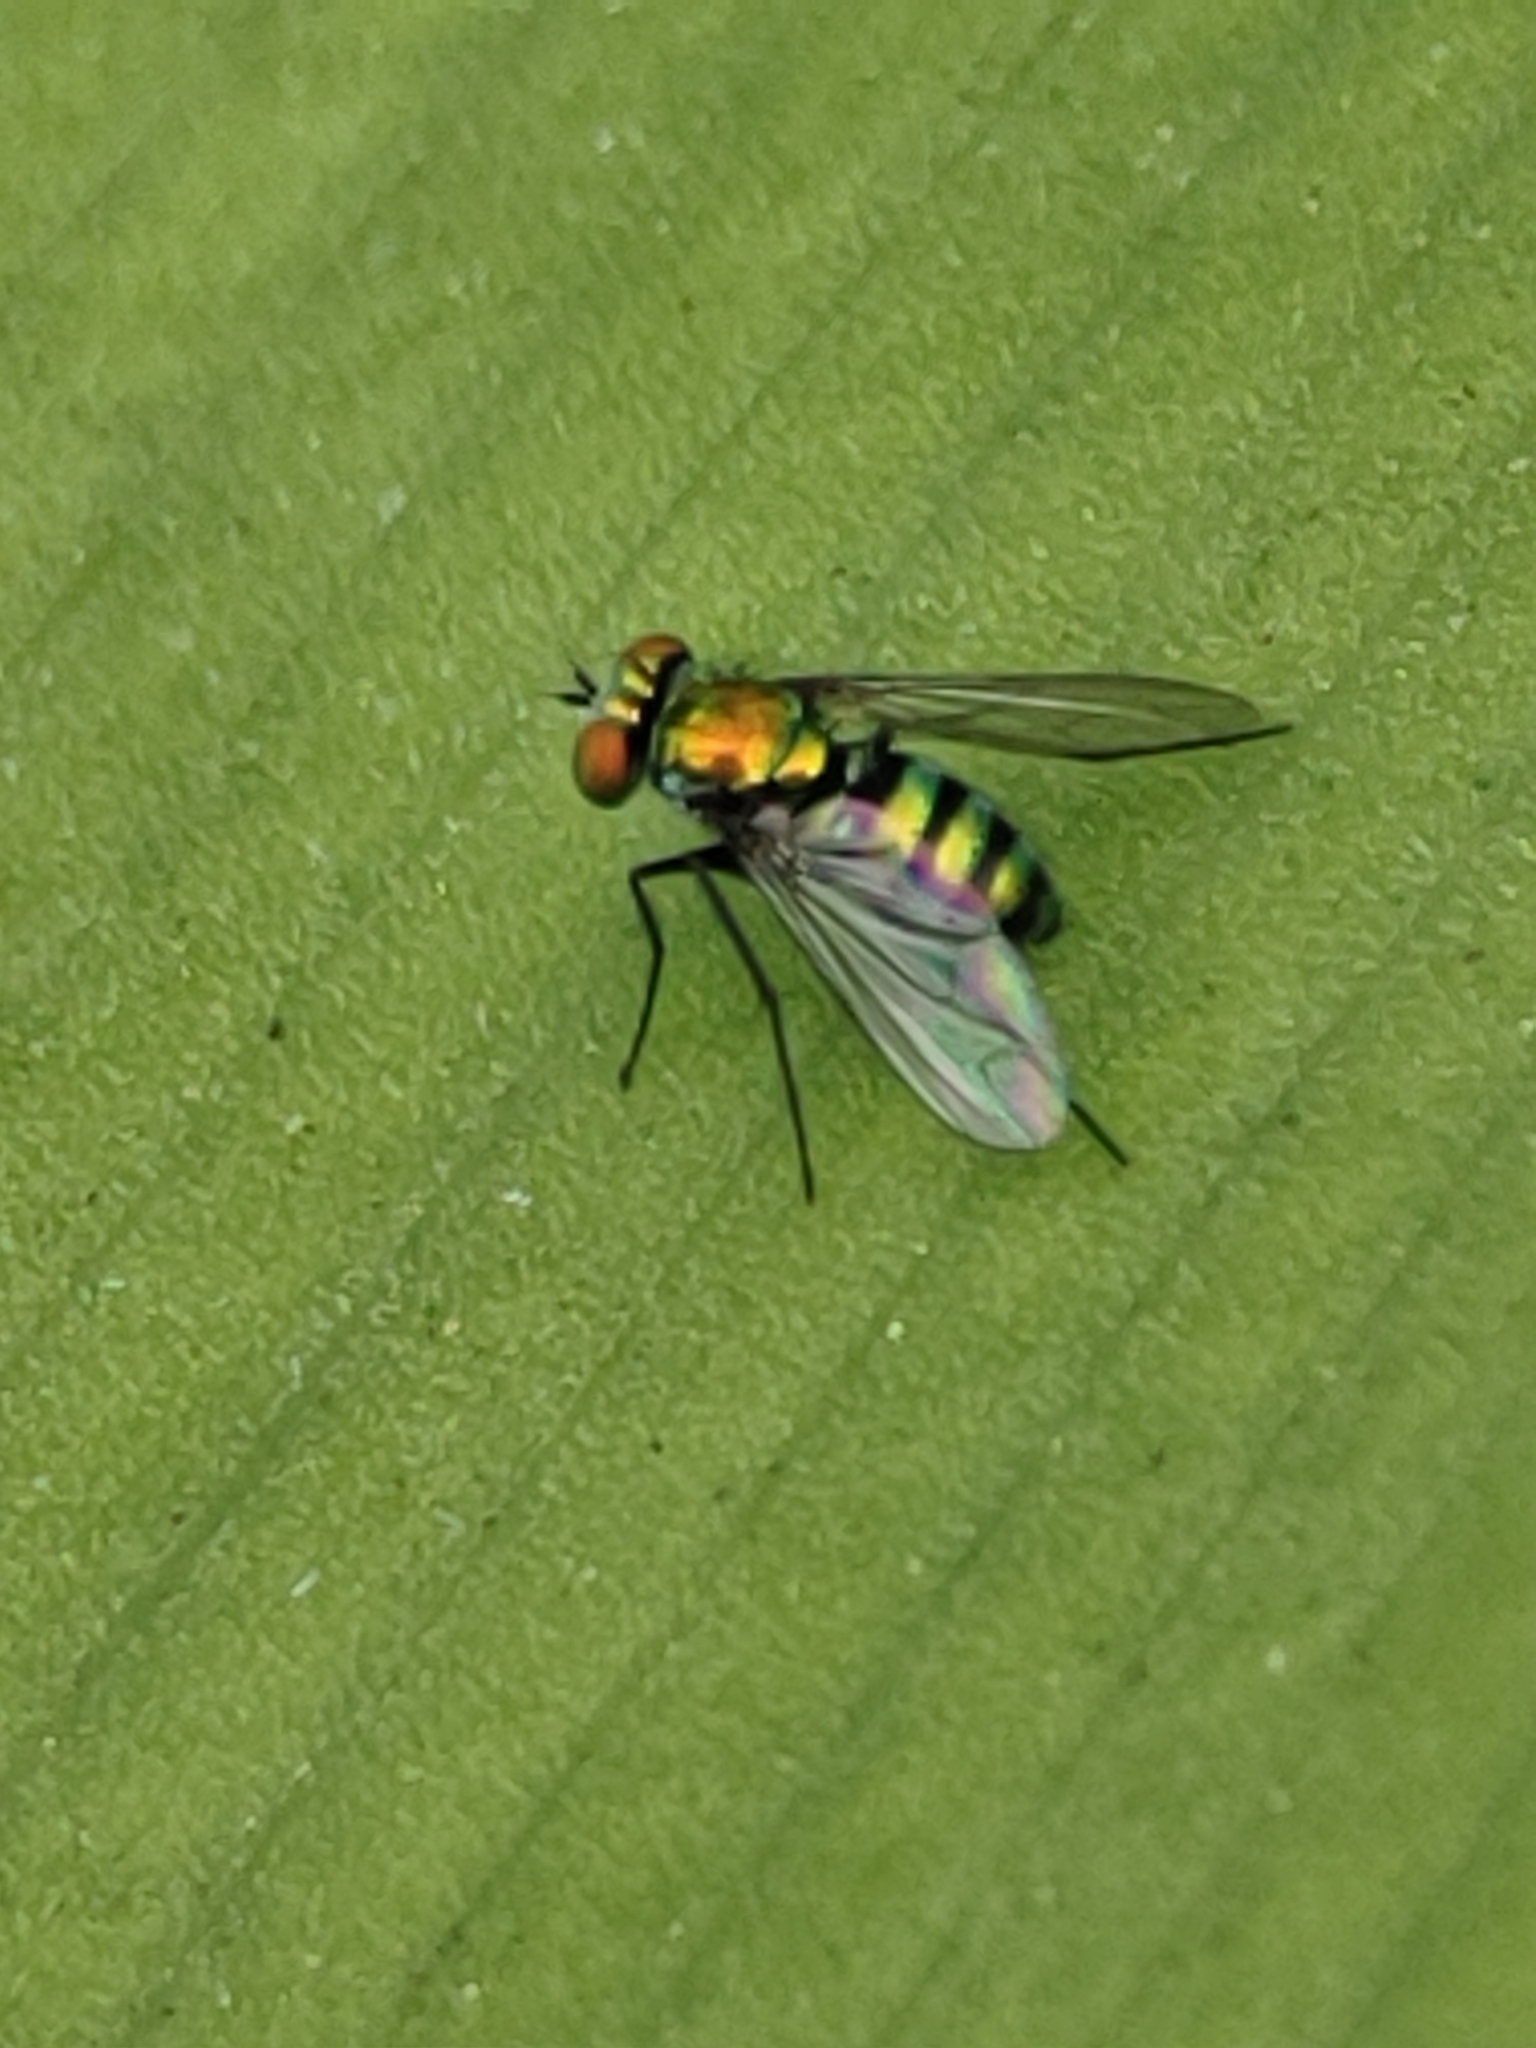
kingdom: Animalia
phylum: Arthropoda
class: Insecta
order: Diptera
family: Dolichopodidae
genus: Condylostylus
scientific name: Condylostylus mundus
